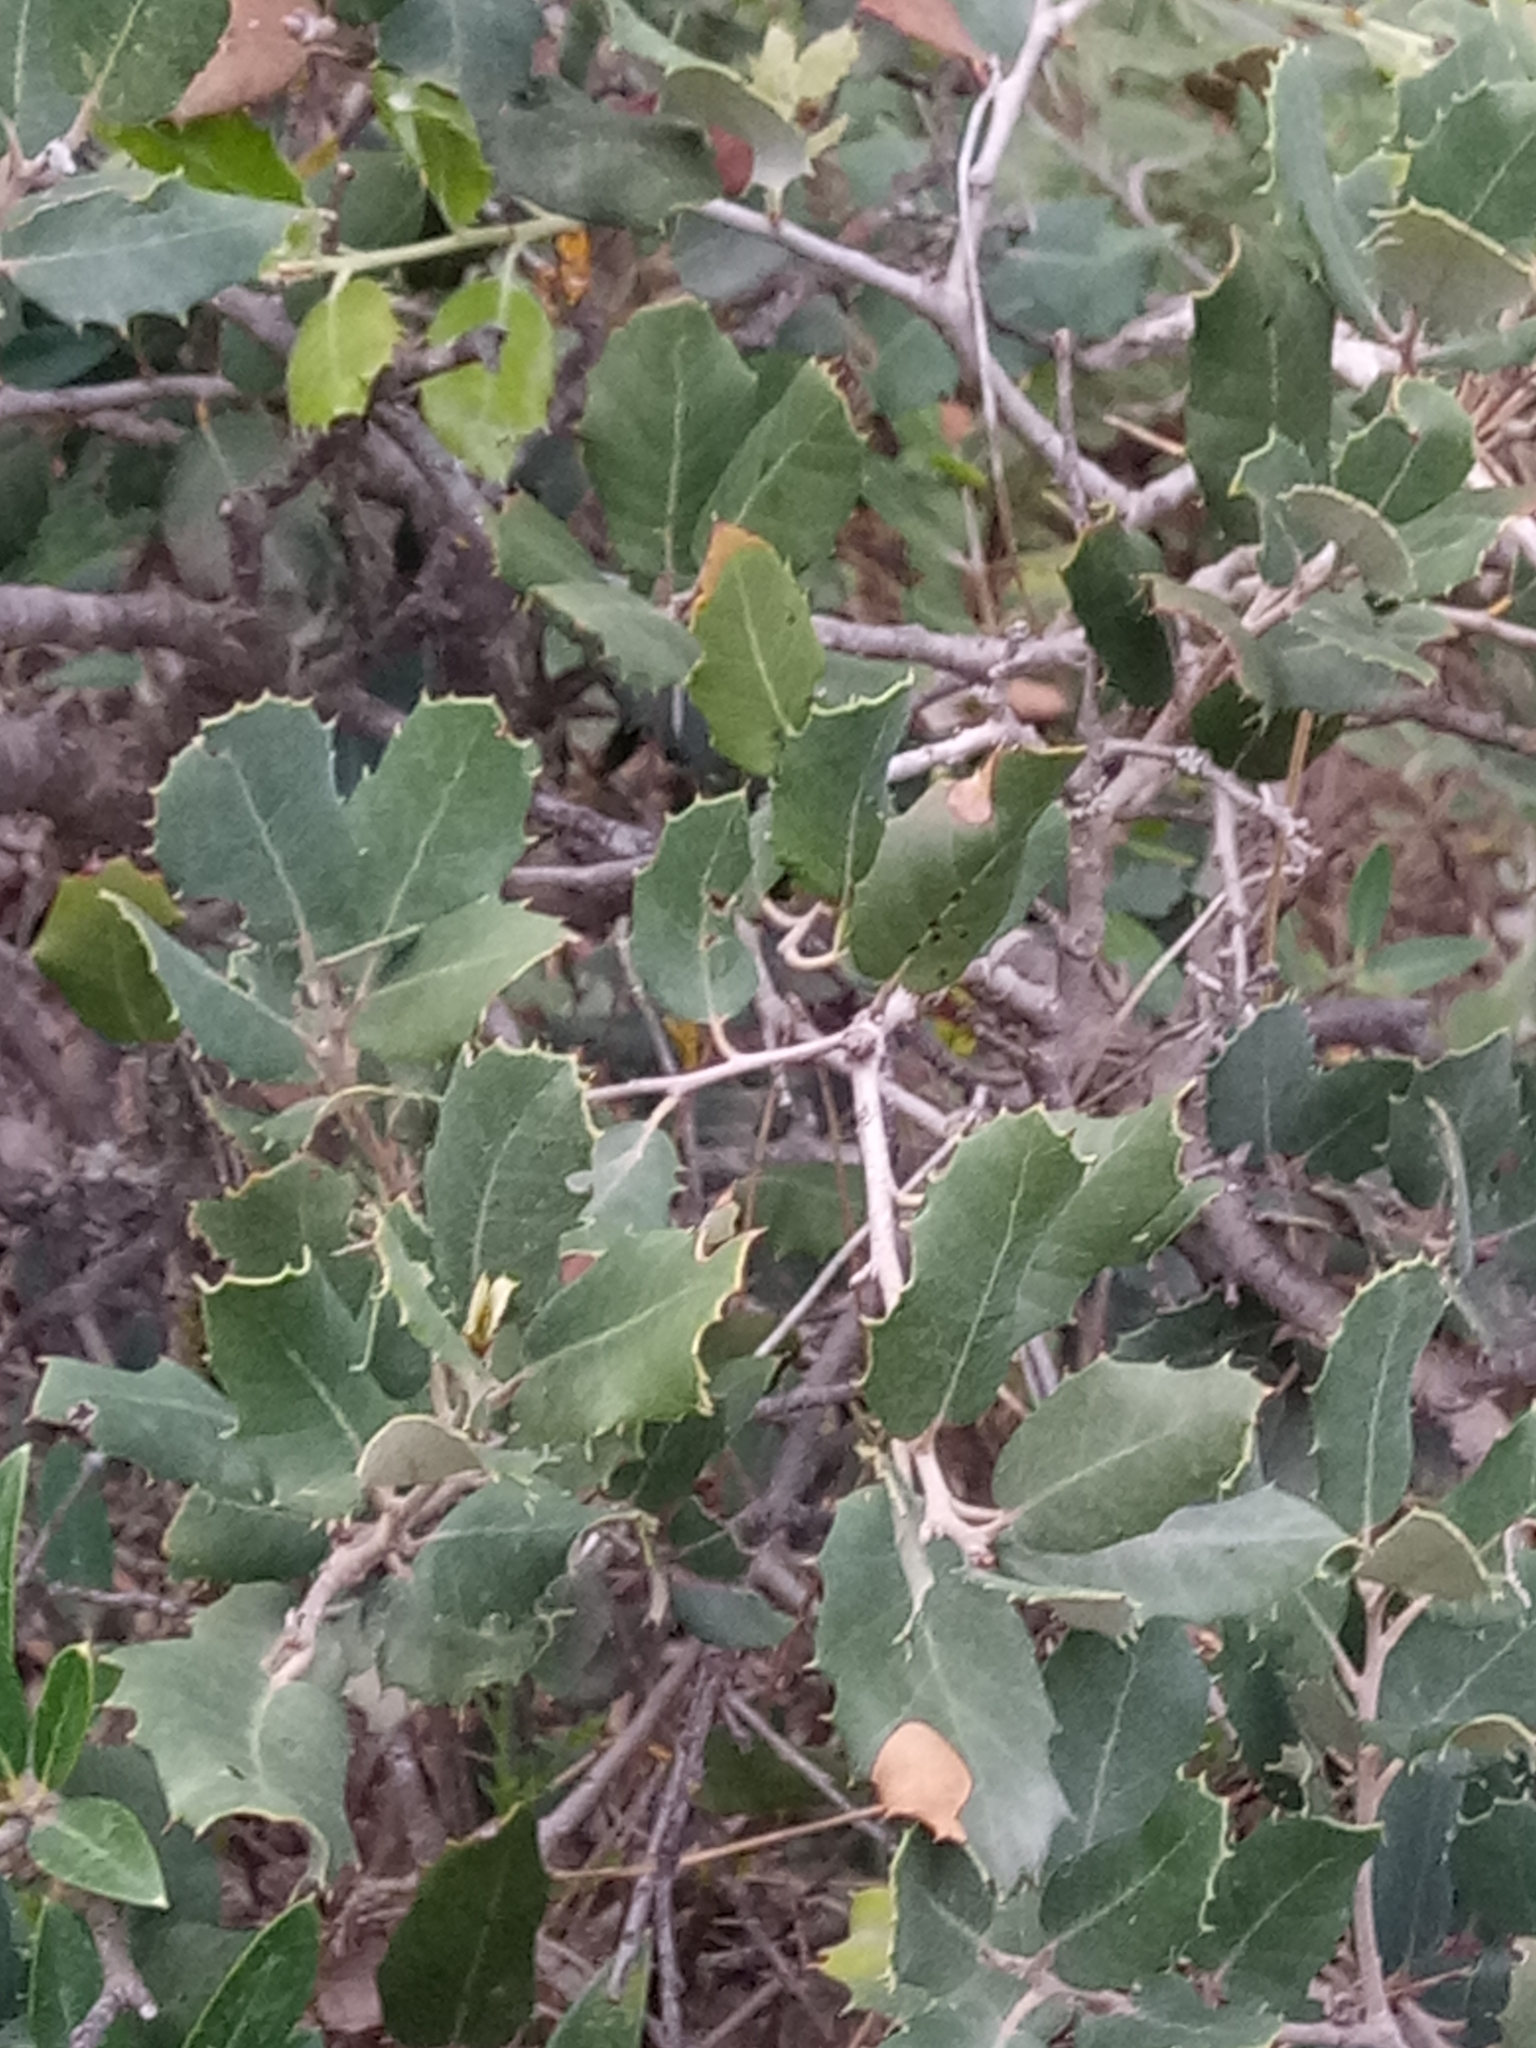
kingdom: Plantae
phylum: Tracheophyta
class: Magnoliopsida
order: Fagales
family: Fagaceae
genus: Quercus
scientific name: Quercus rotundifolia
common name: Holm oak
